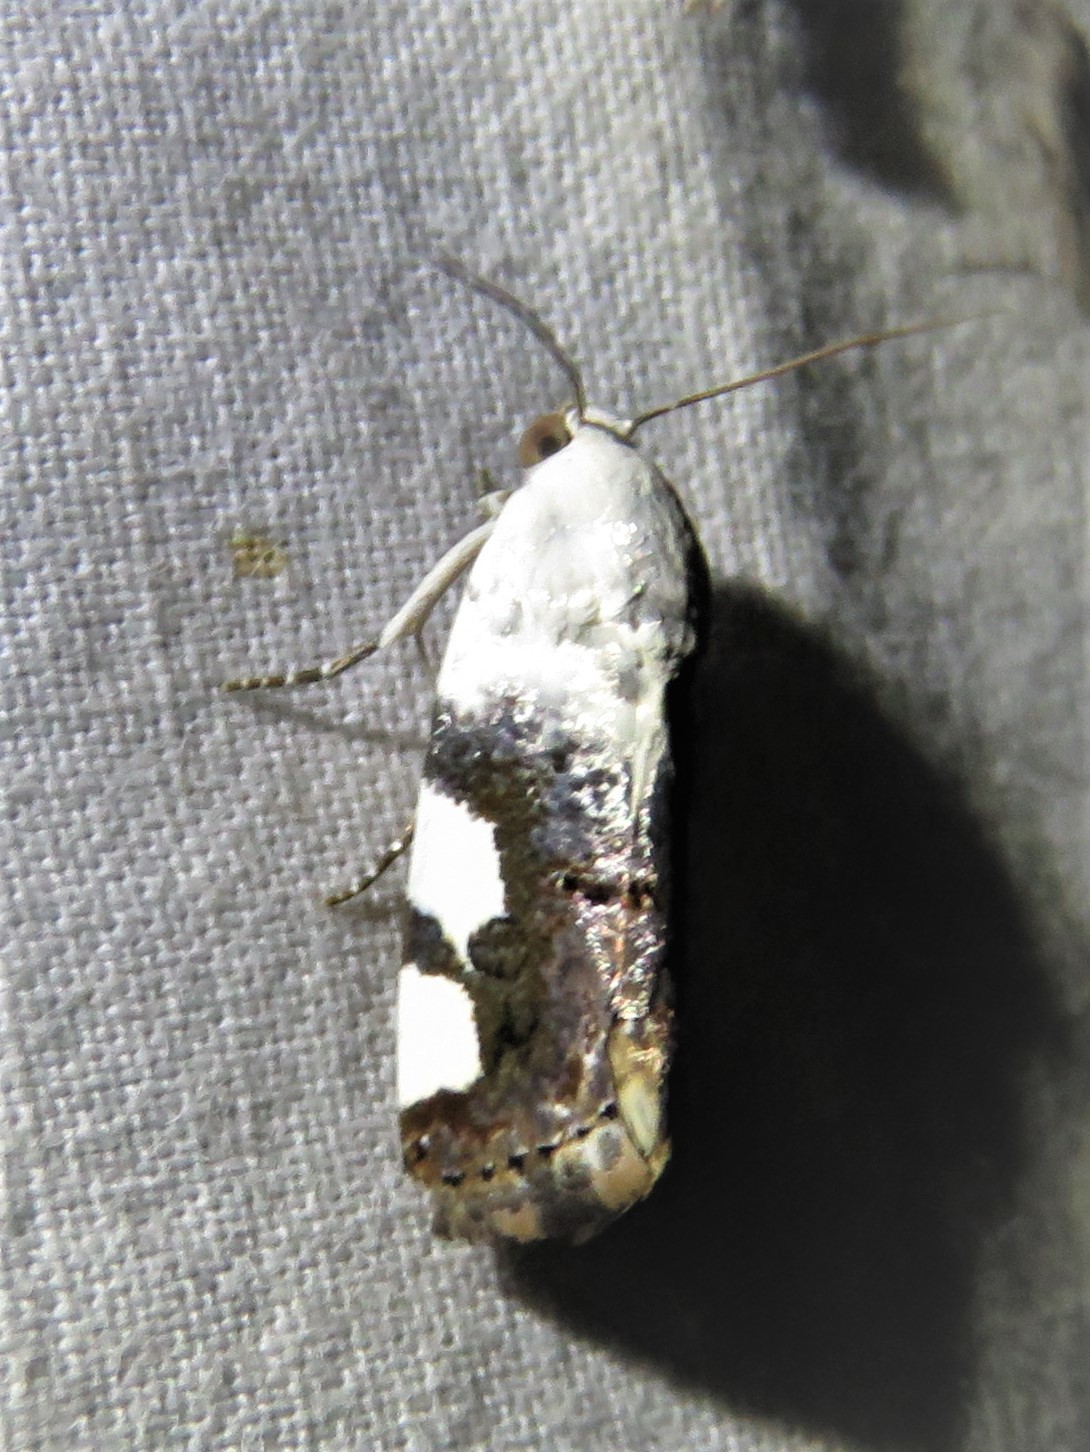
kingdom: Animalia
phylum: Arthropoda
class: Insecta
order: Lepidoptera
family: Noctuidae
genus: Acontia
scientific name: Acontia quadriplaga
